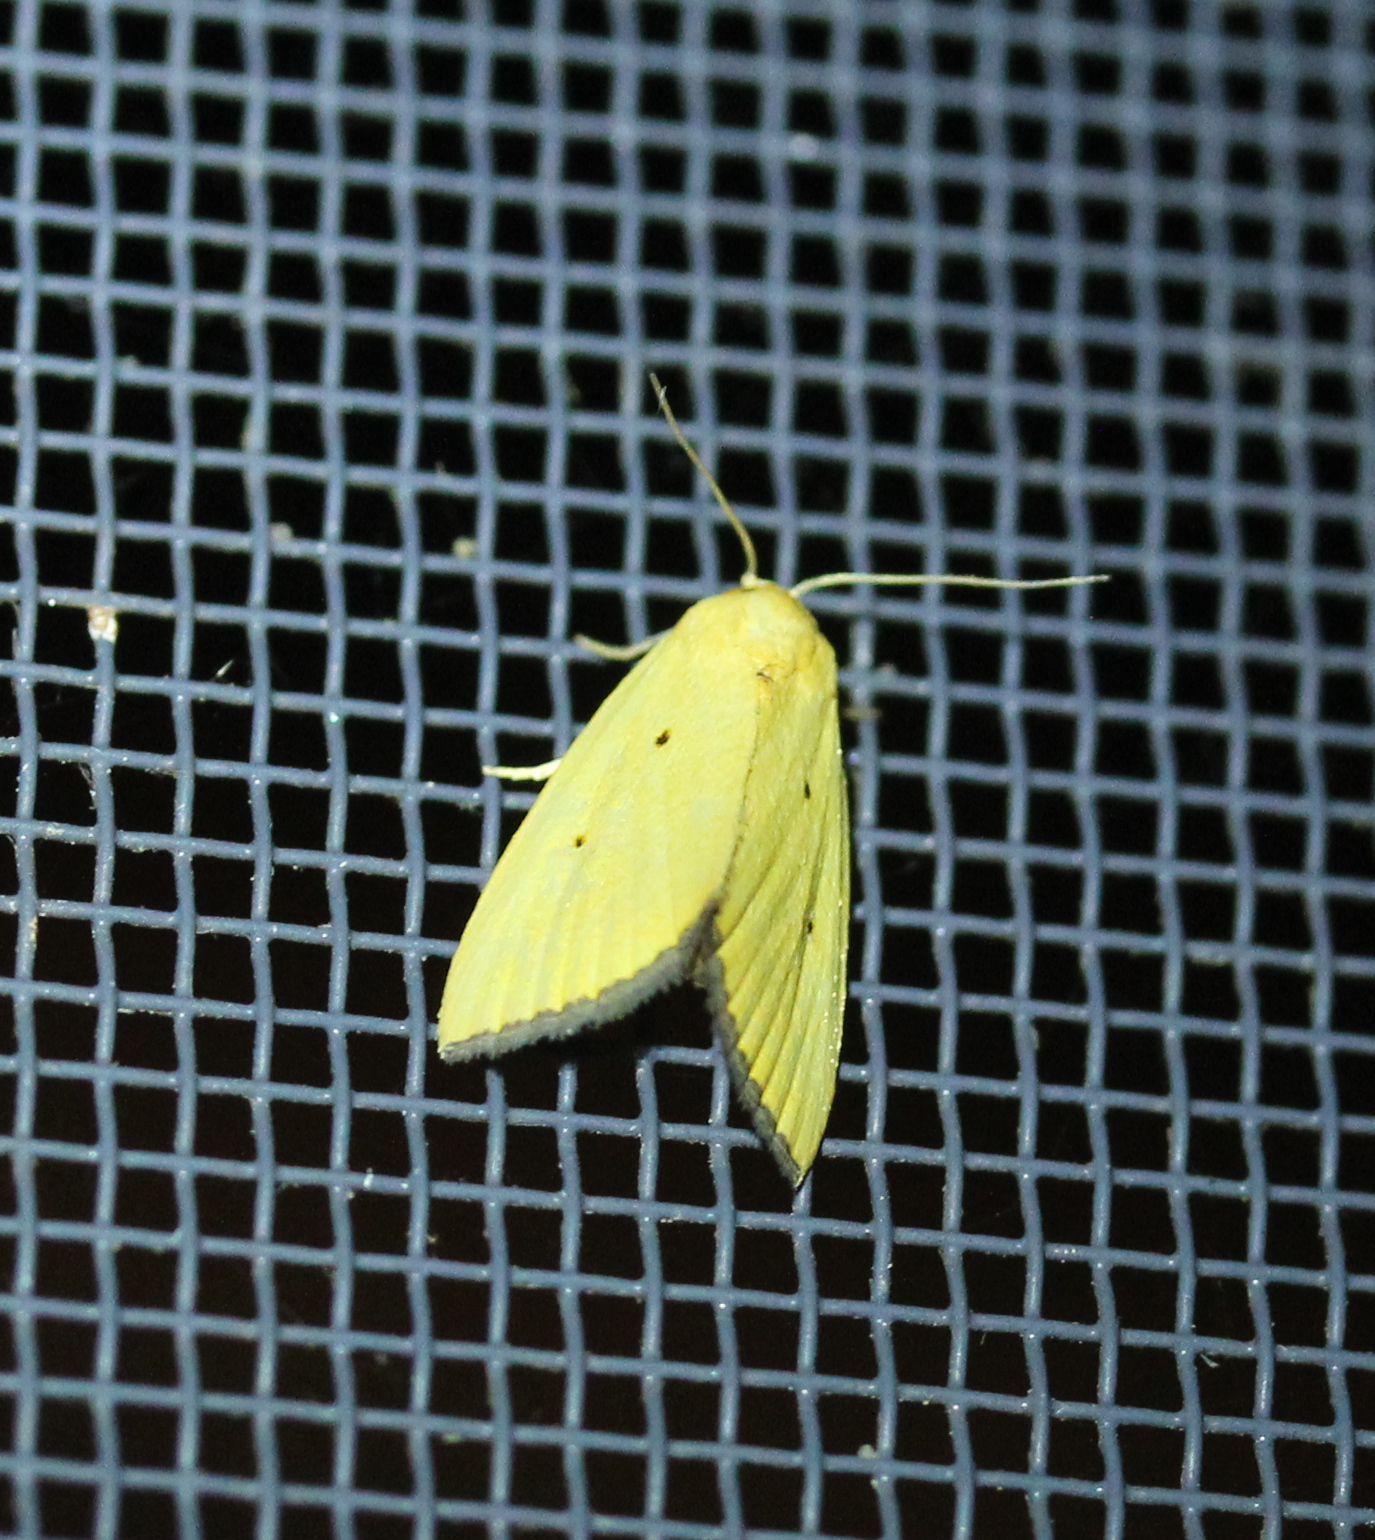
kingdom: Animalia
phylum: Arthropoda
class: Insecta
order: Lepidoptera
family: Noctuidae
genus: Marimatha
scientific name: Marimatha nigrofimbria
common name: Black-bordered lemon moth
